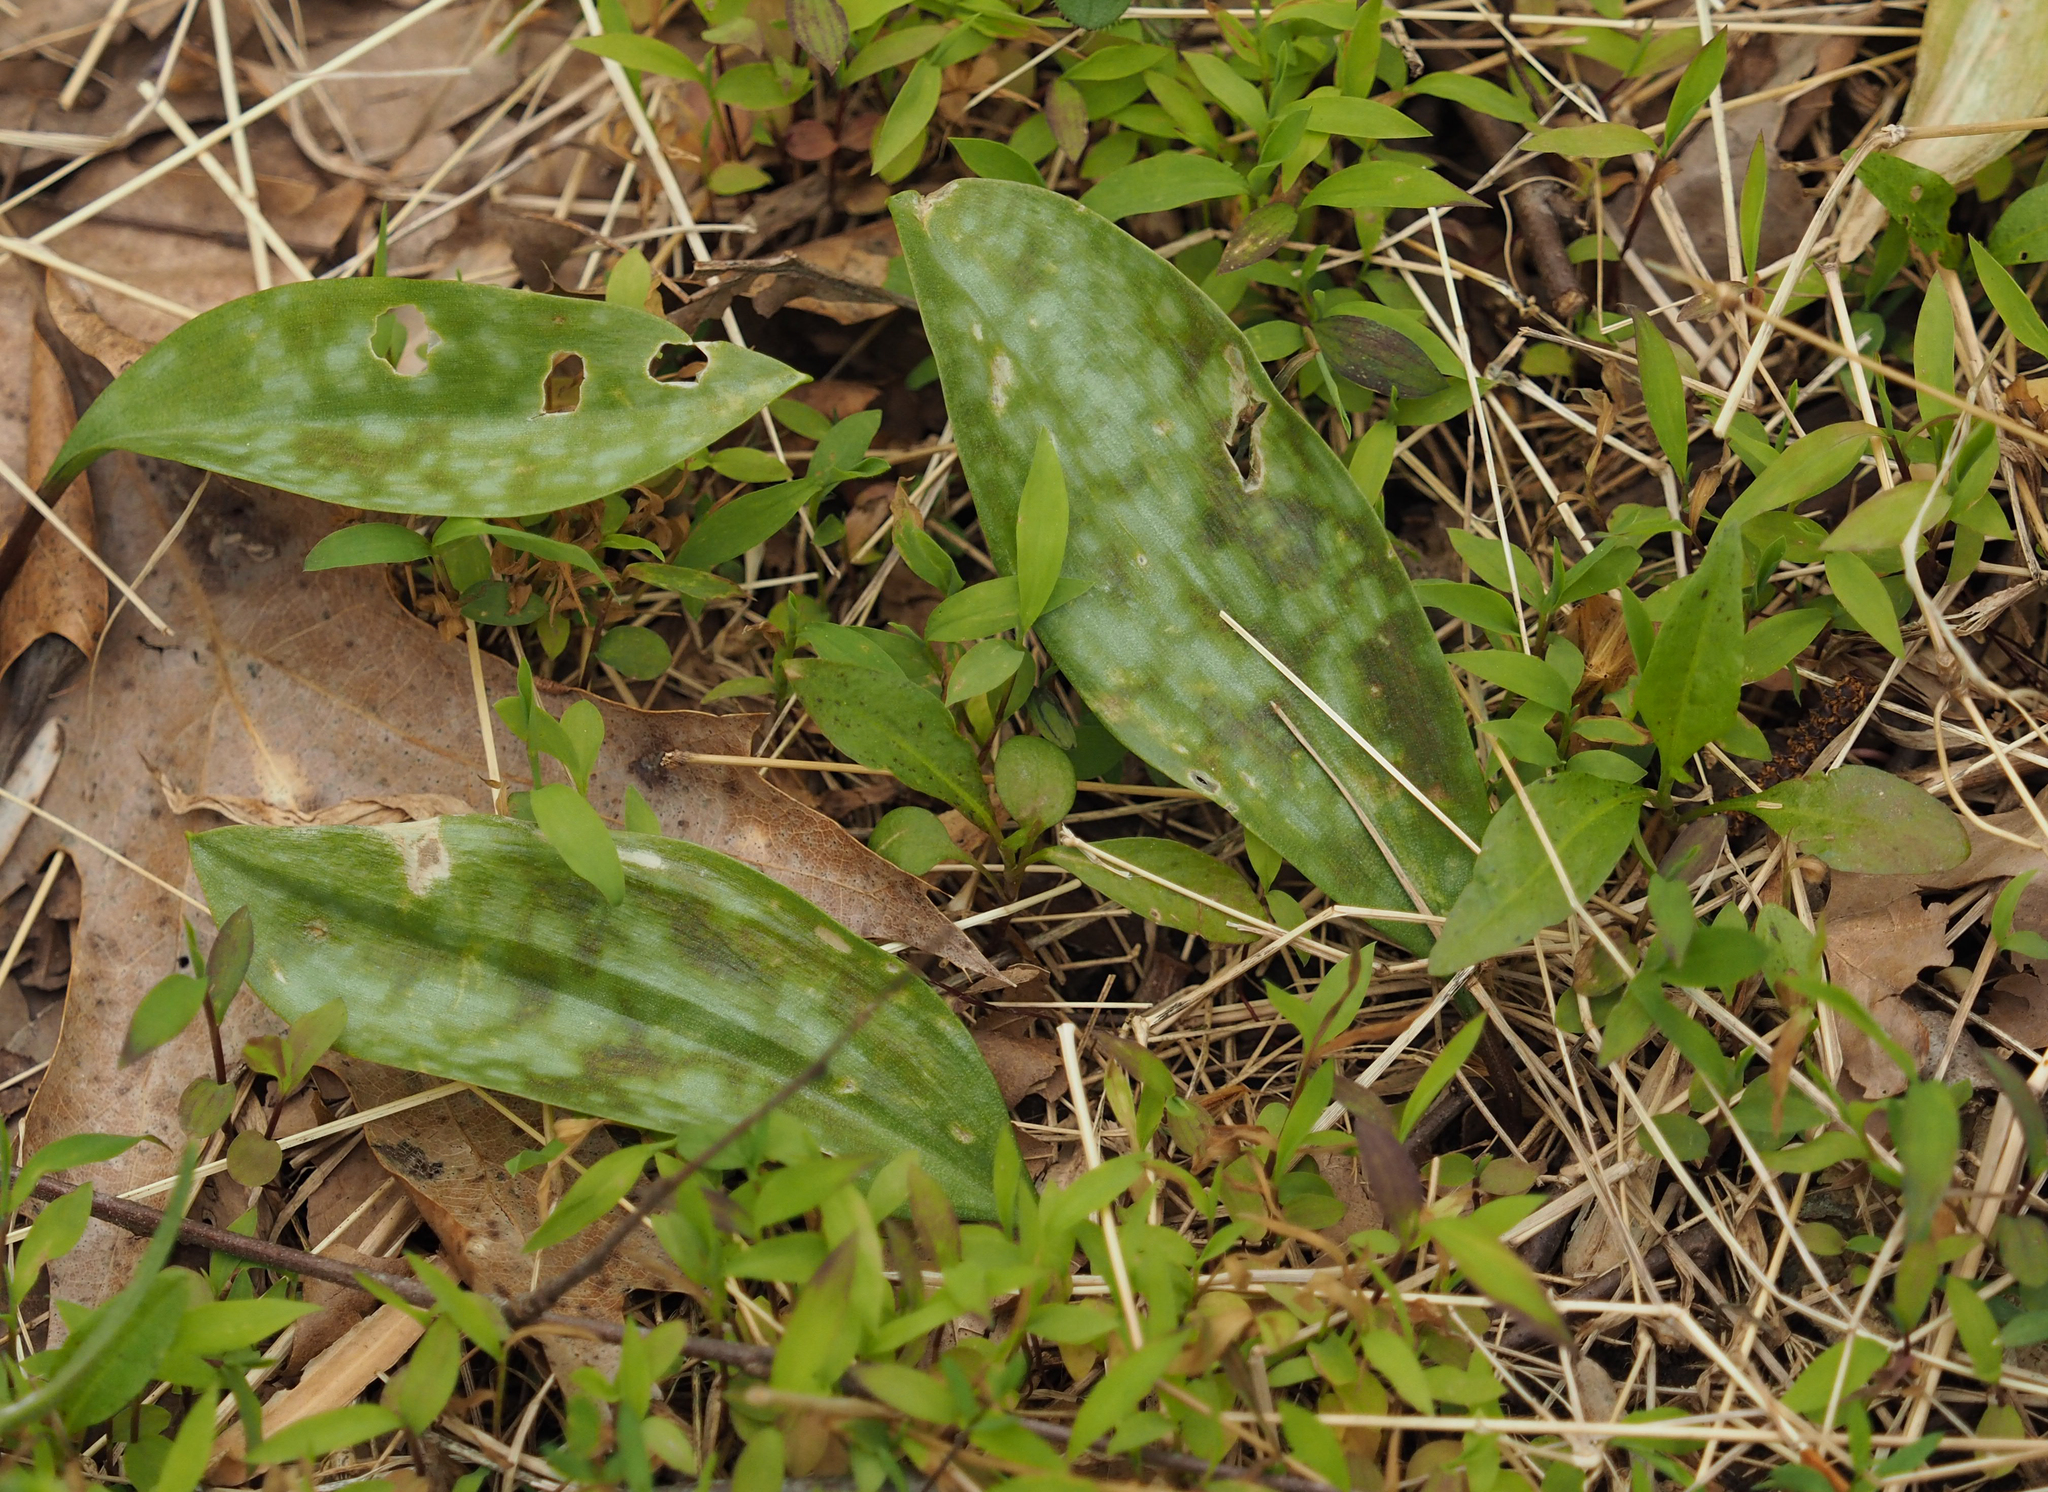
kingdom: Plantae
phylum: Tracheophyta
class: Liliopsida
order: Liliales
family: Liliaceae
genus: Erythronium
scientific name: Erythronium americanum
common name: Yellow adder's-tongue
